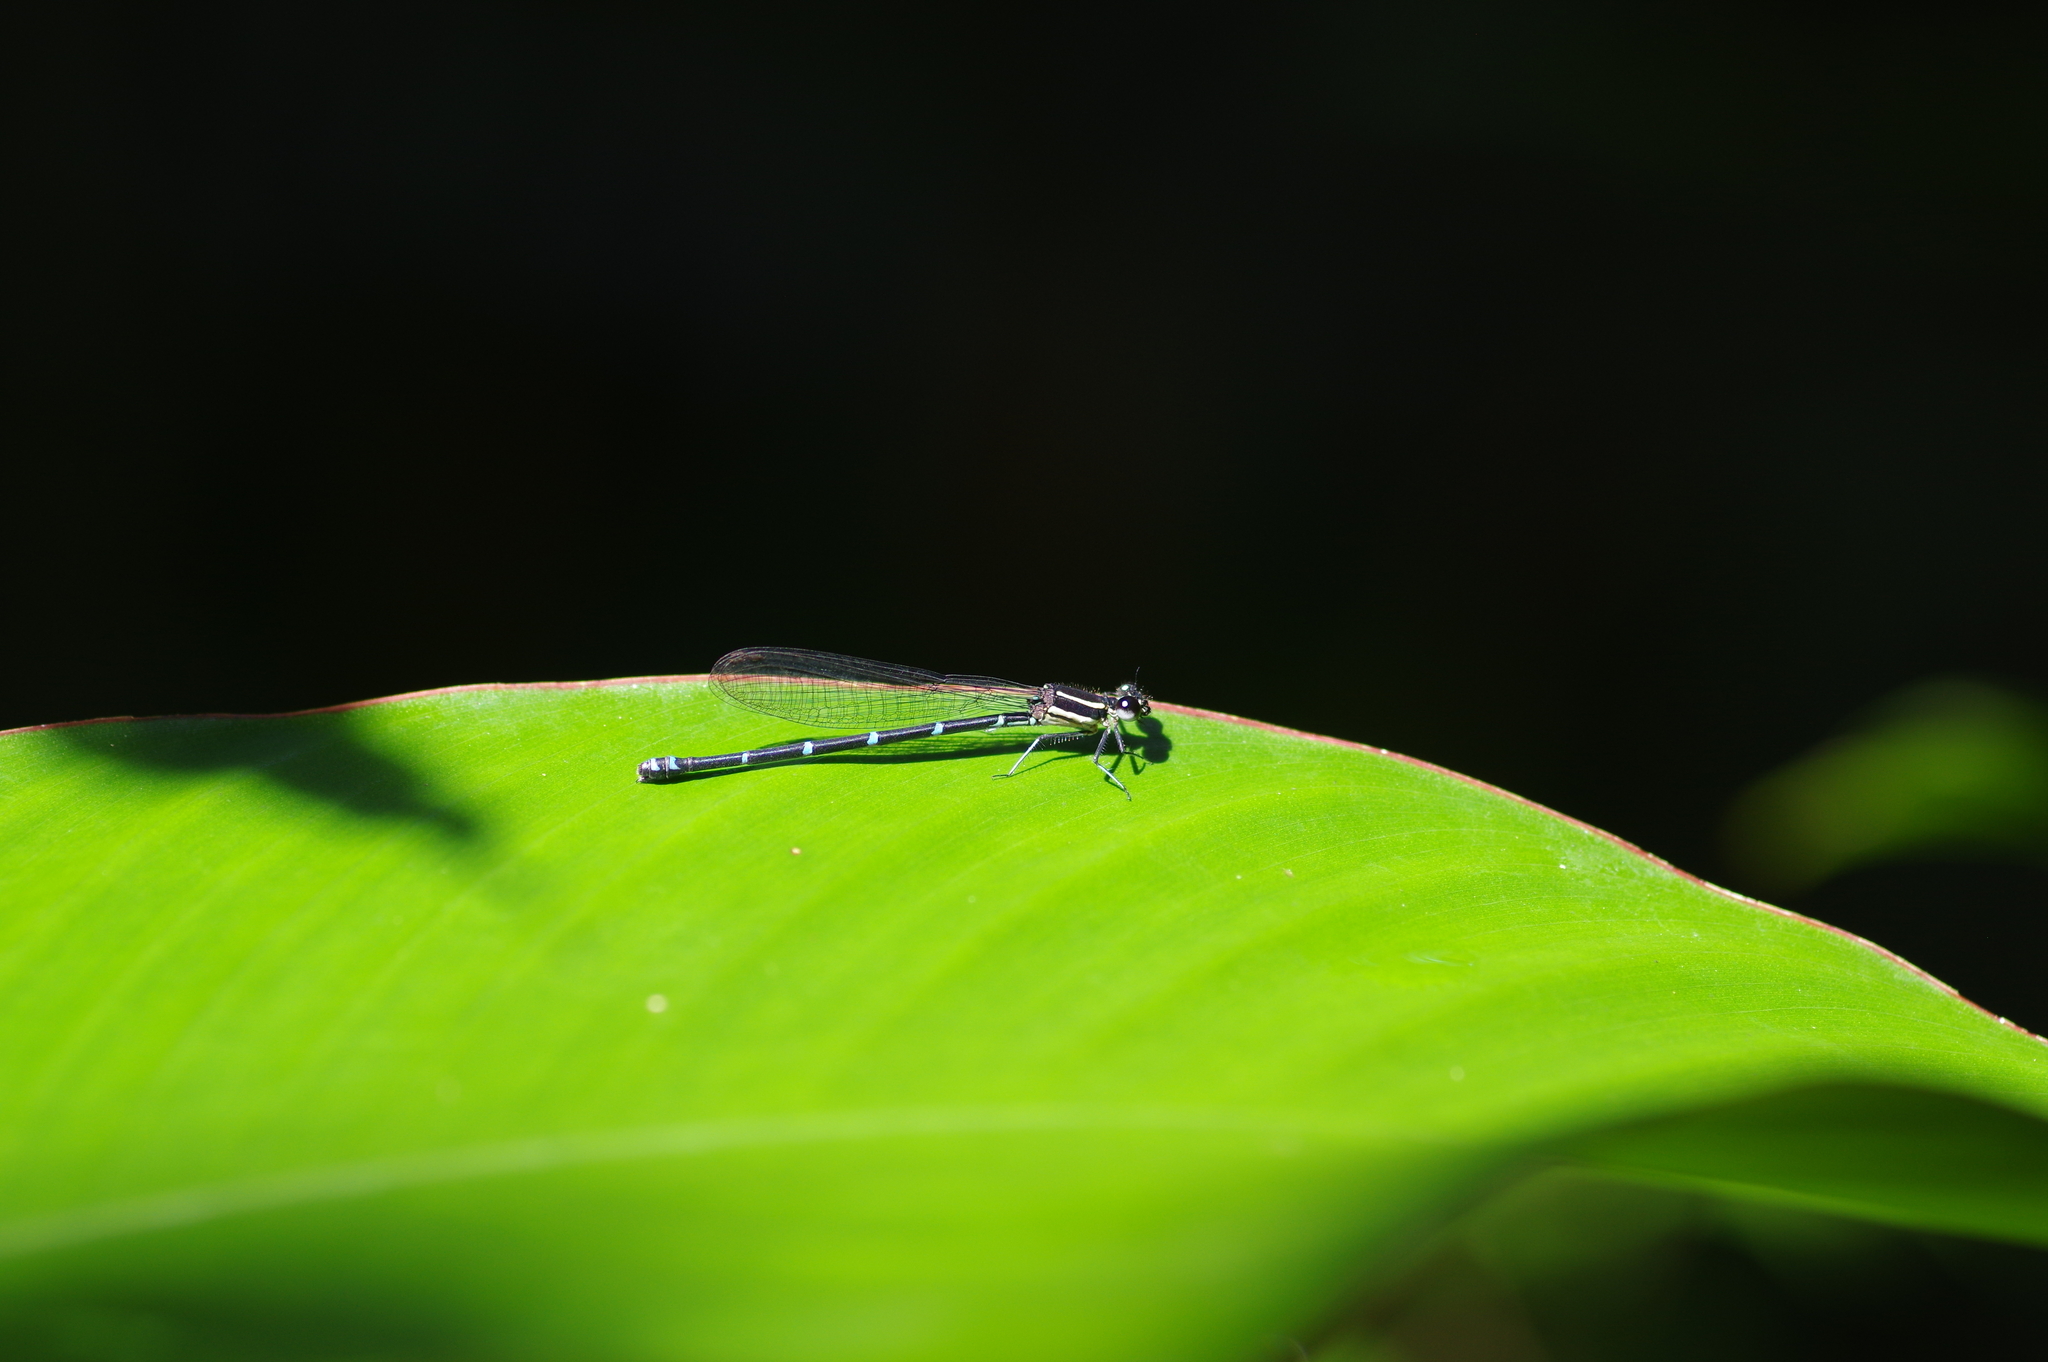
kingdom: Animalia
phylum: Arthropoda
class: Insecta
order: Odonata
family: Coenagrionidae
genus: Argia
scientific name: Argia oculata
